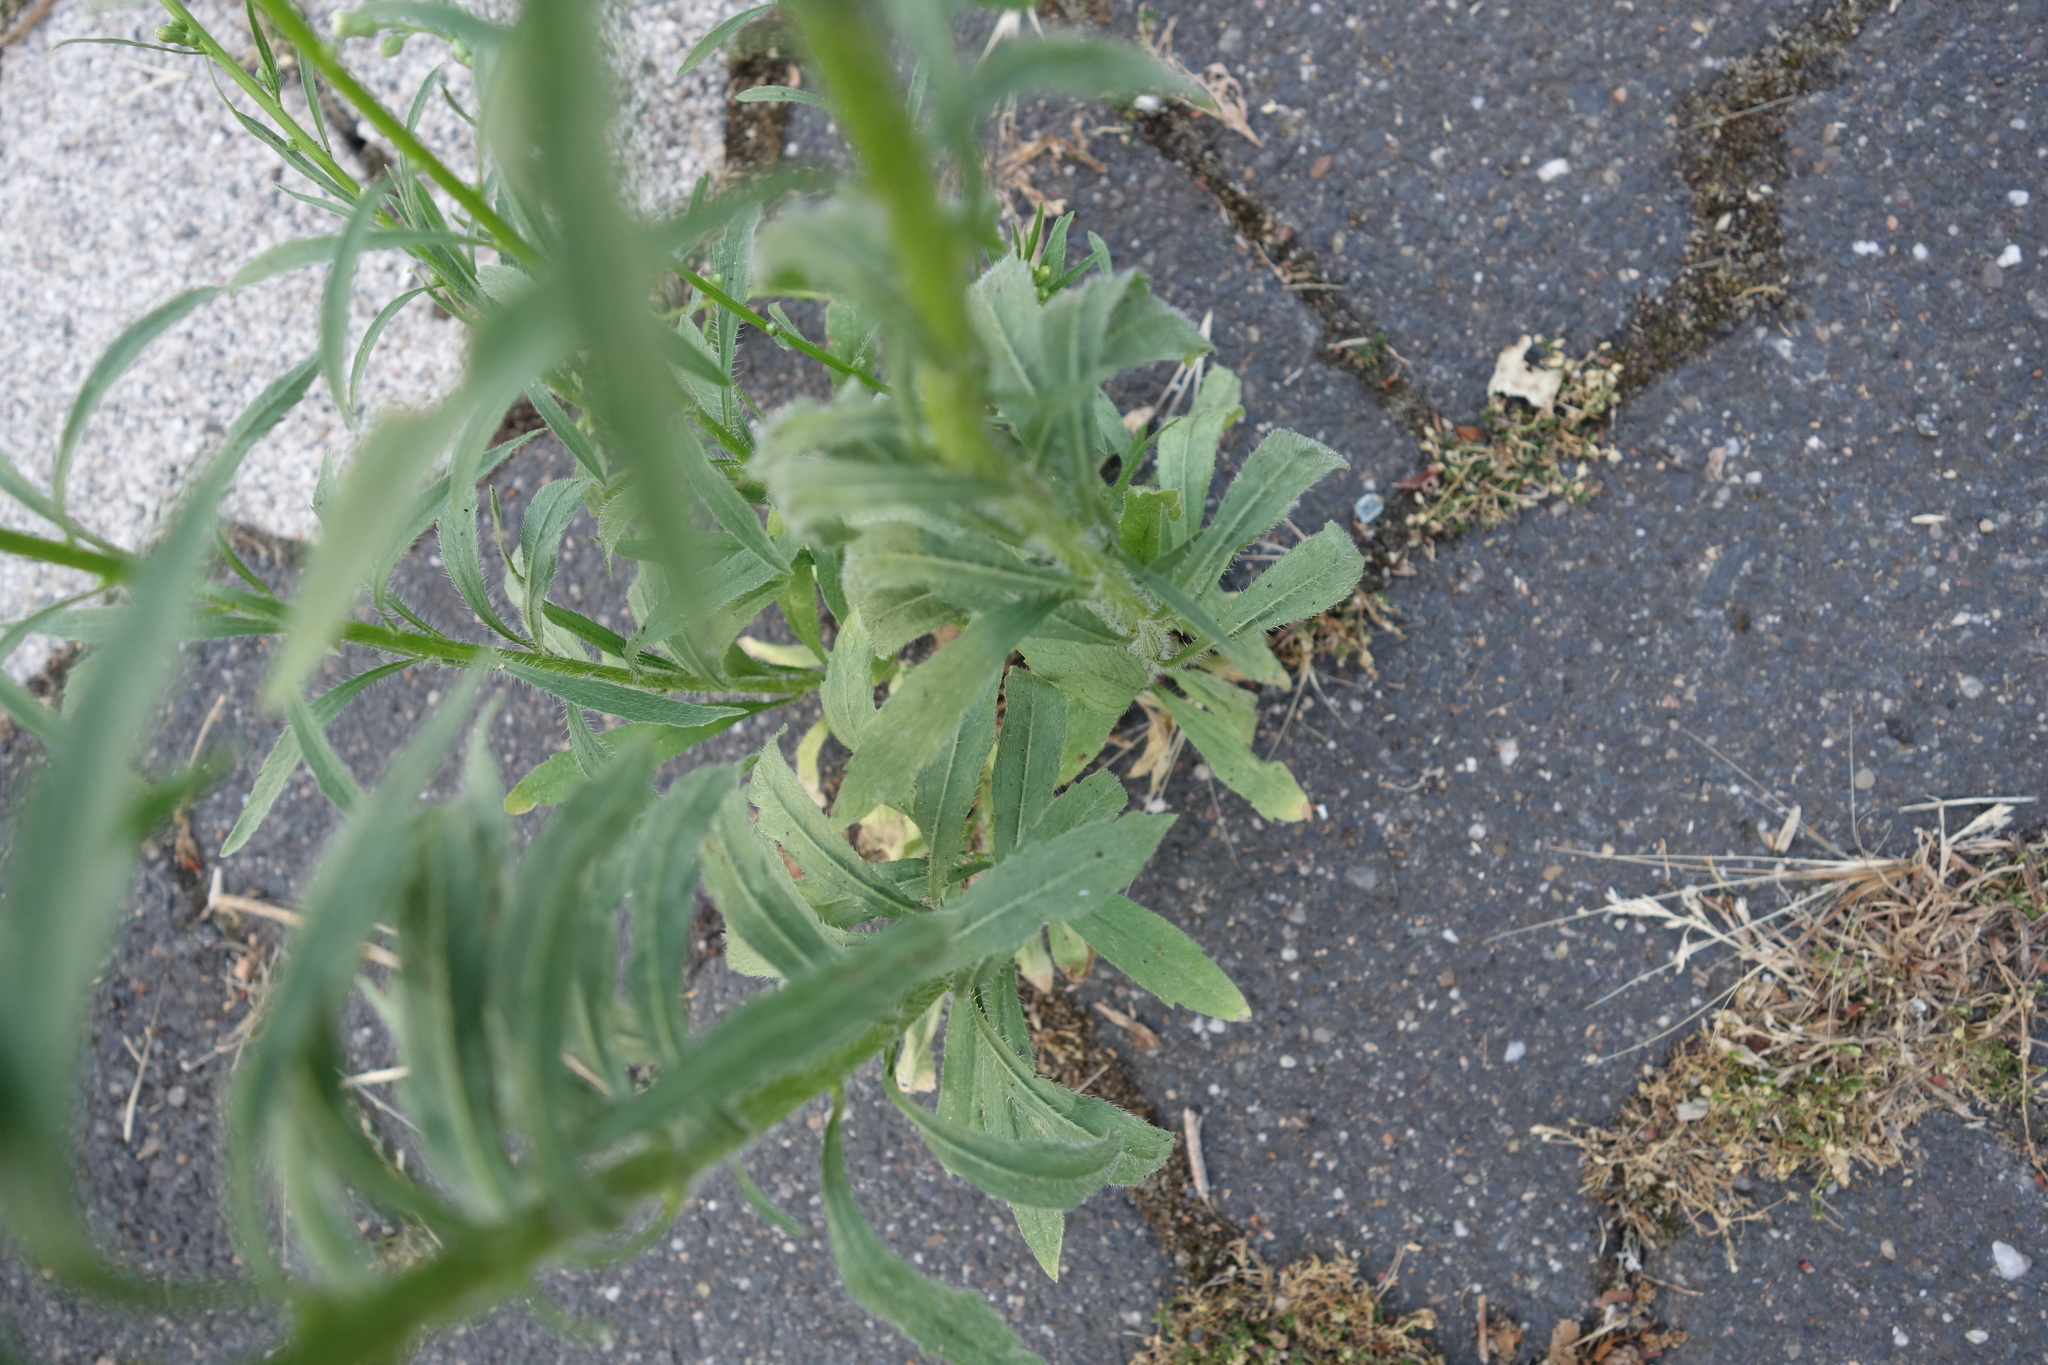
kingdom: Plantae
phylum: Tracheophyta
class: Magnoliopsida
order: Asterales
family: Asteraceae
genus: Erigeron
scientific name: Erigeron canadensis
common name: Canadian fleabane
